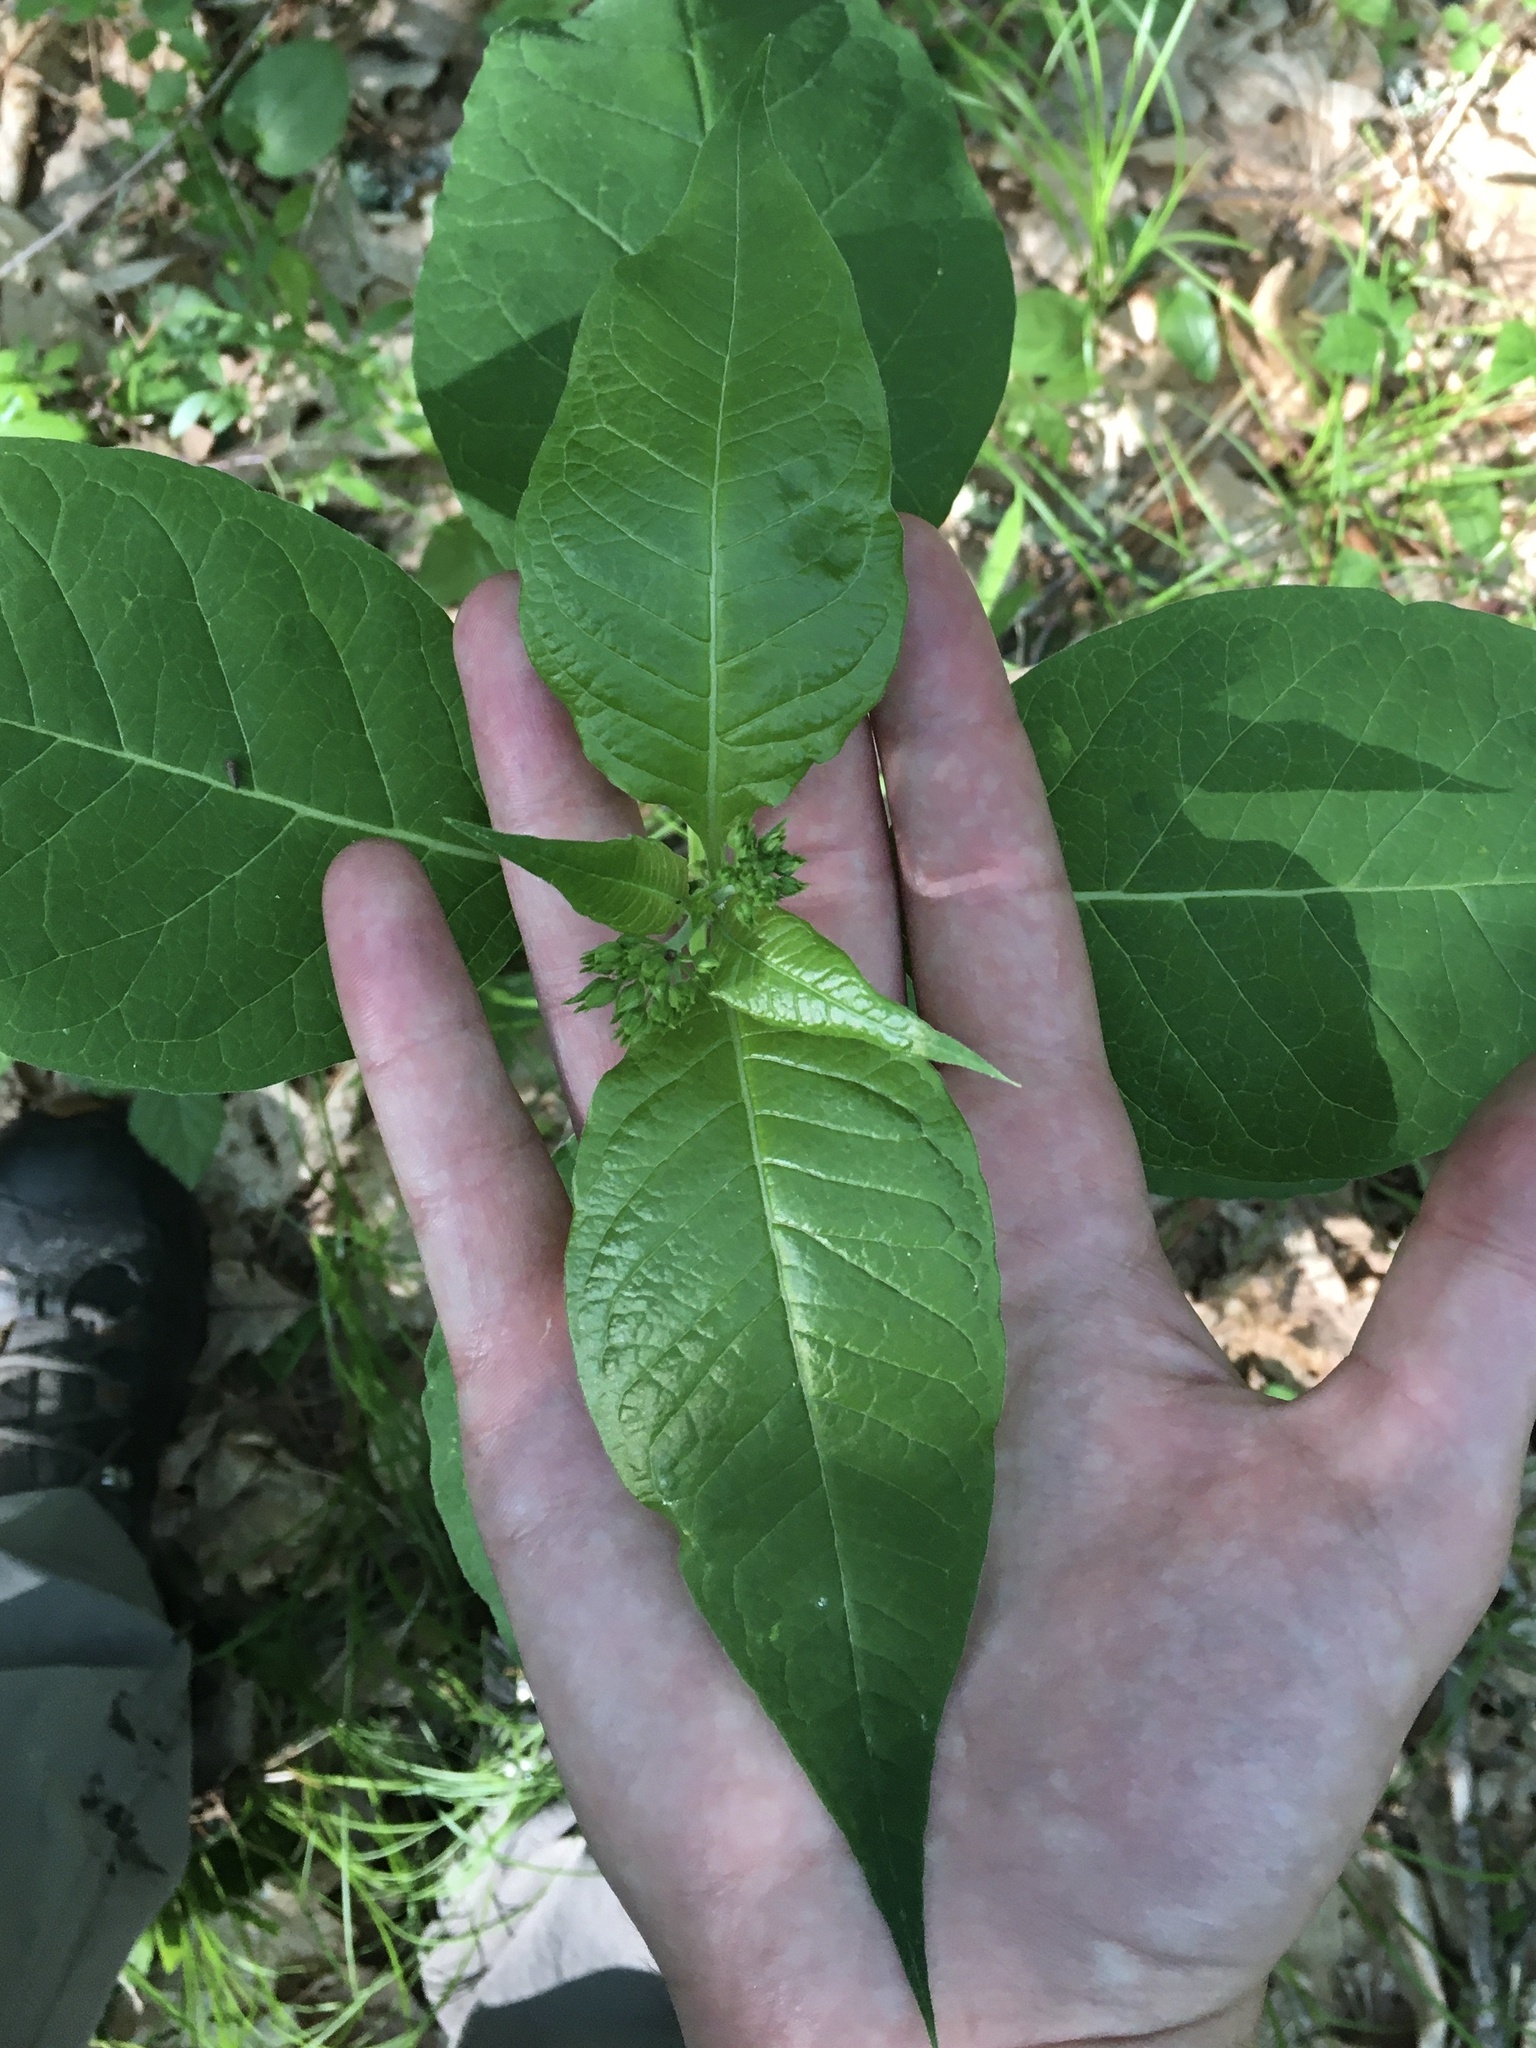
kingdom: Plantae
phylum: Tracheophyta
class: Magnoliopsida
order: Gentianales
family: Apocynaceae
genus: Asclepias
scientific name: Asclepias exaltata
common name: Poke milkweed
